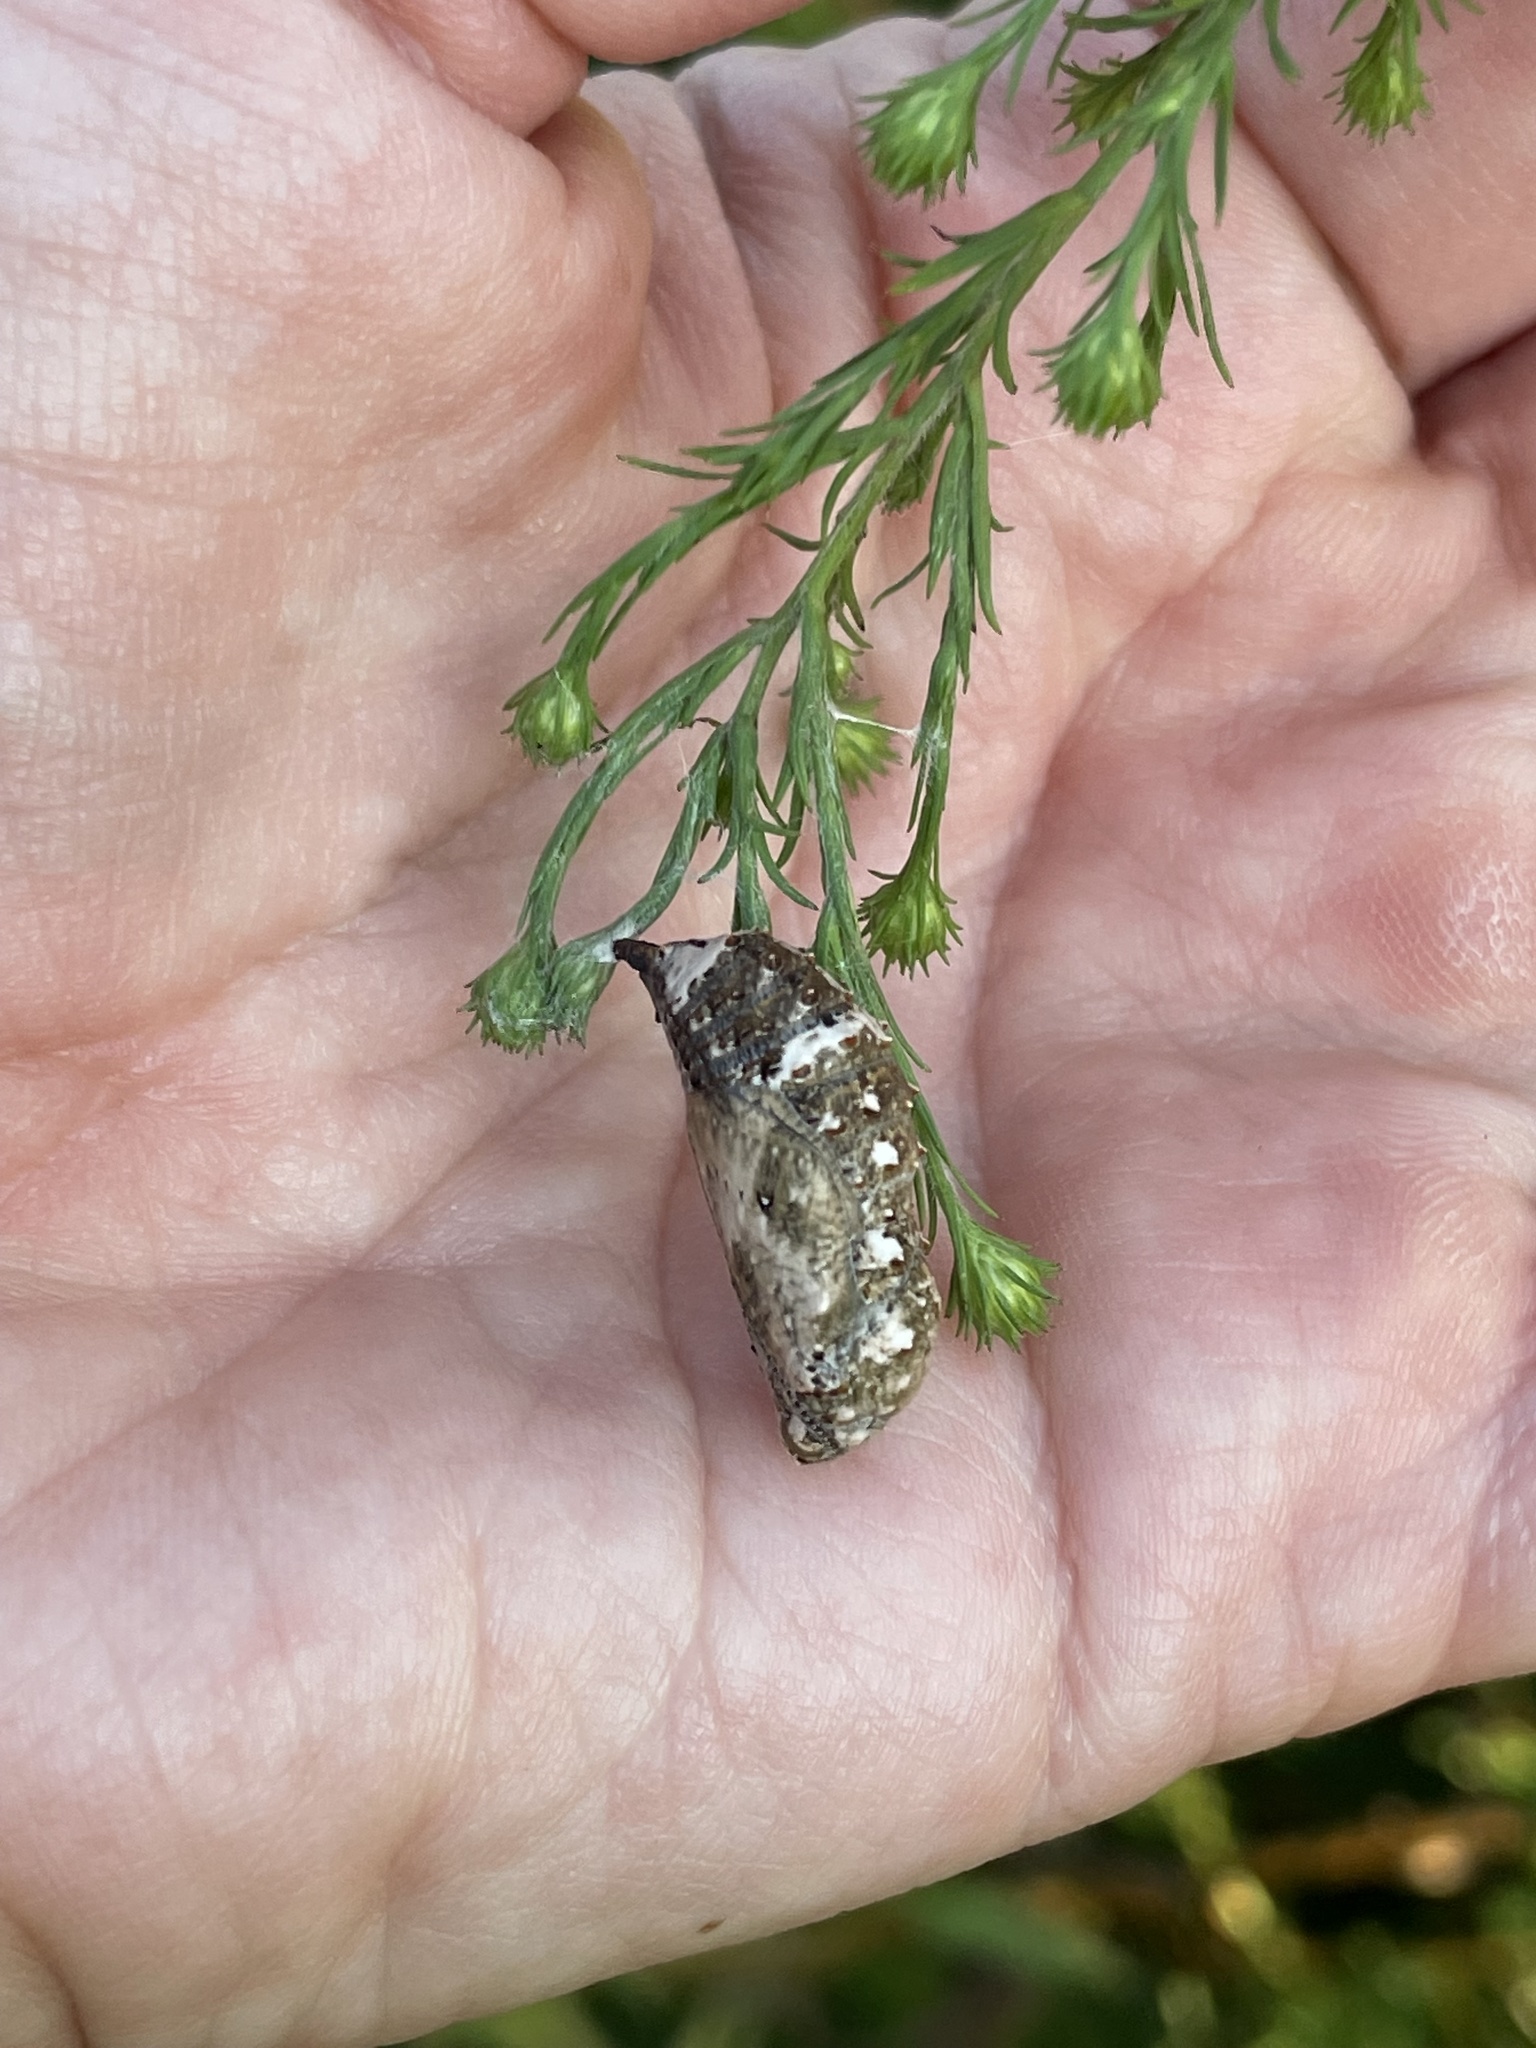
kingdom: Animalia
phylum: Arthropoda
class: Insecta
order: Lepidoptera
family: Nymphalidae
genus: Junonia
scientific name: Junonia coenia
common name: Common buckeye
